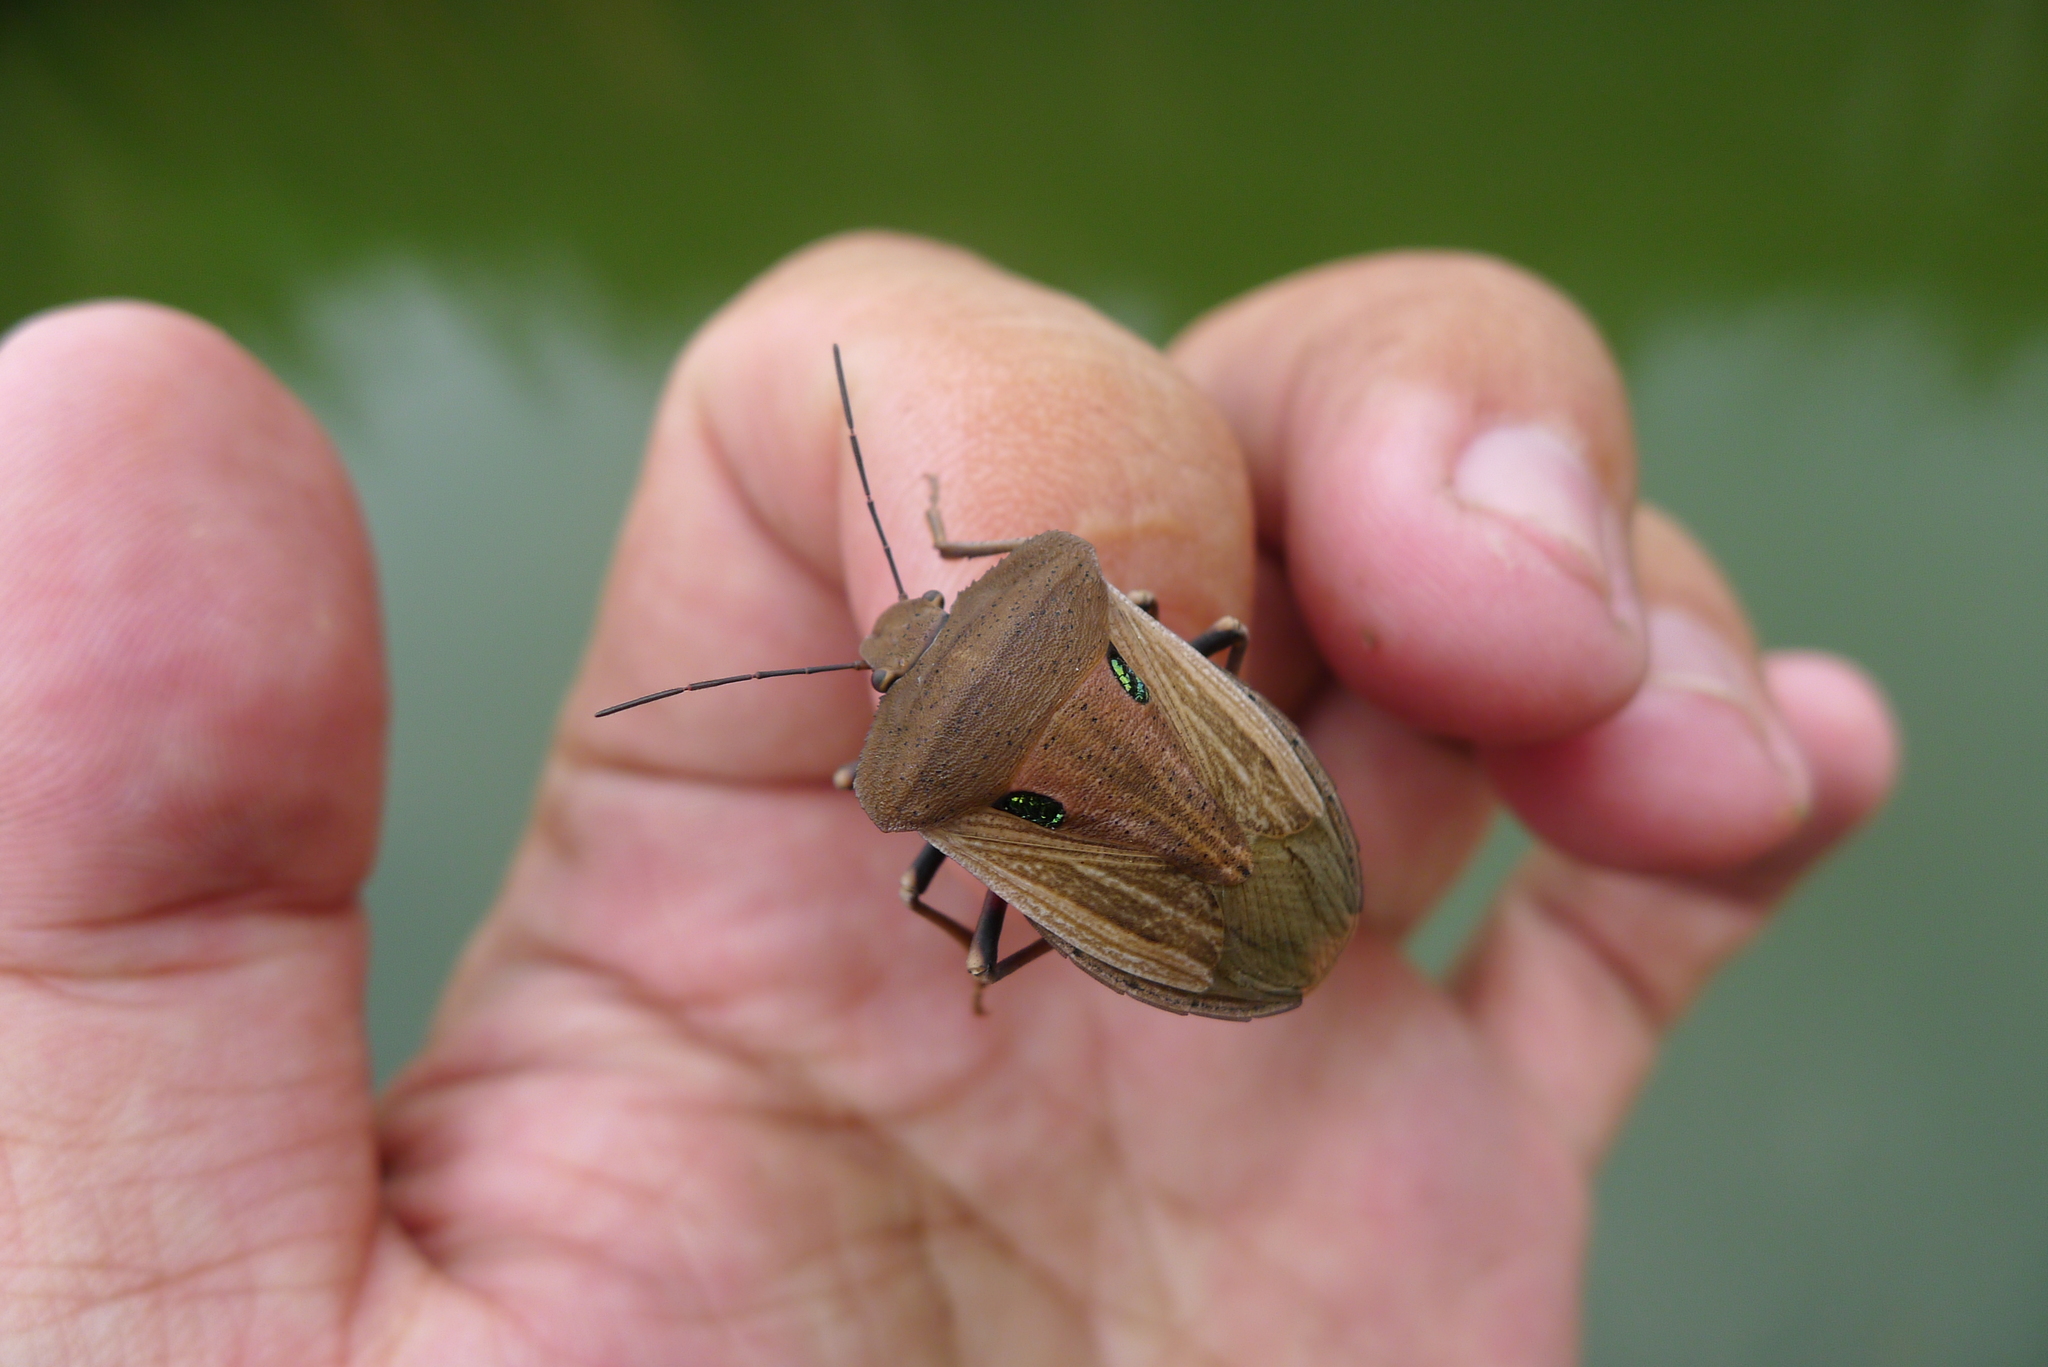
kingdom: Animalia
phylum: Arthropoda
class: Insecta
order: Hemiptera
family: Pentatomidae
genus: Chalcopis
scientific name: Chalcopis glandulosa
